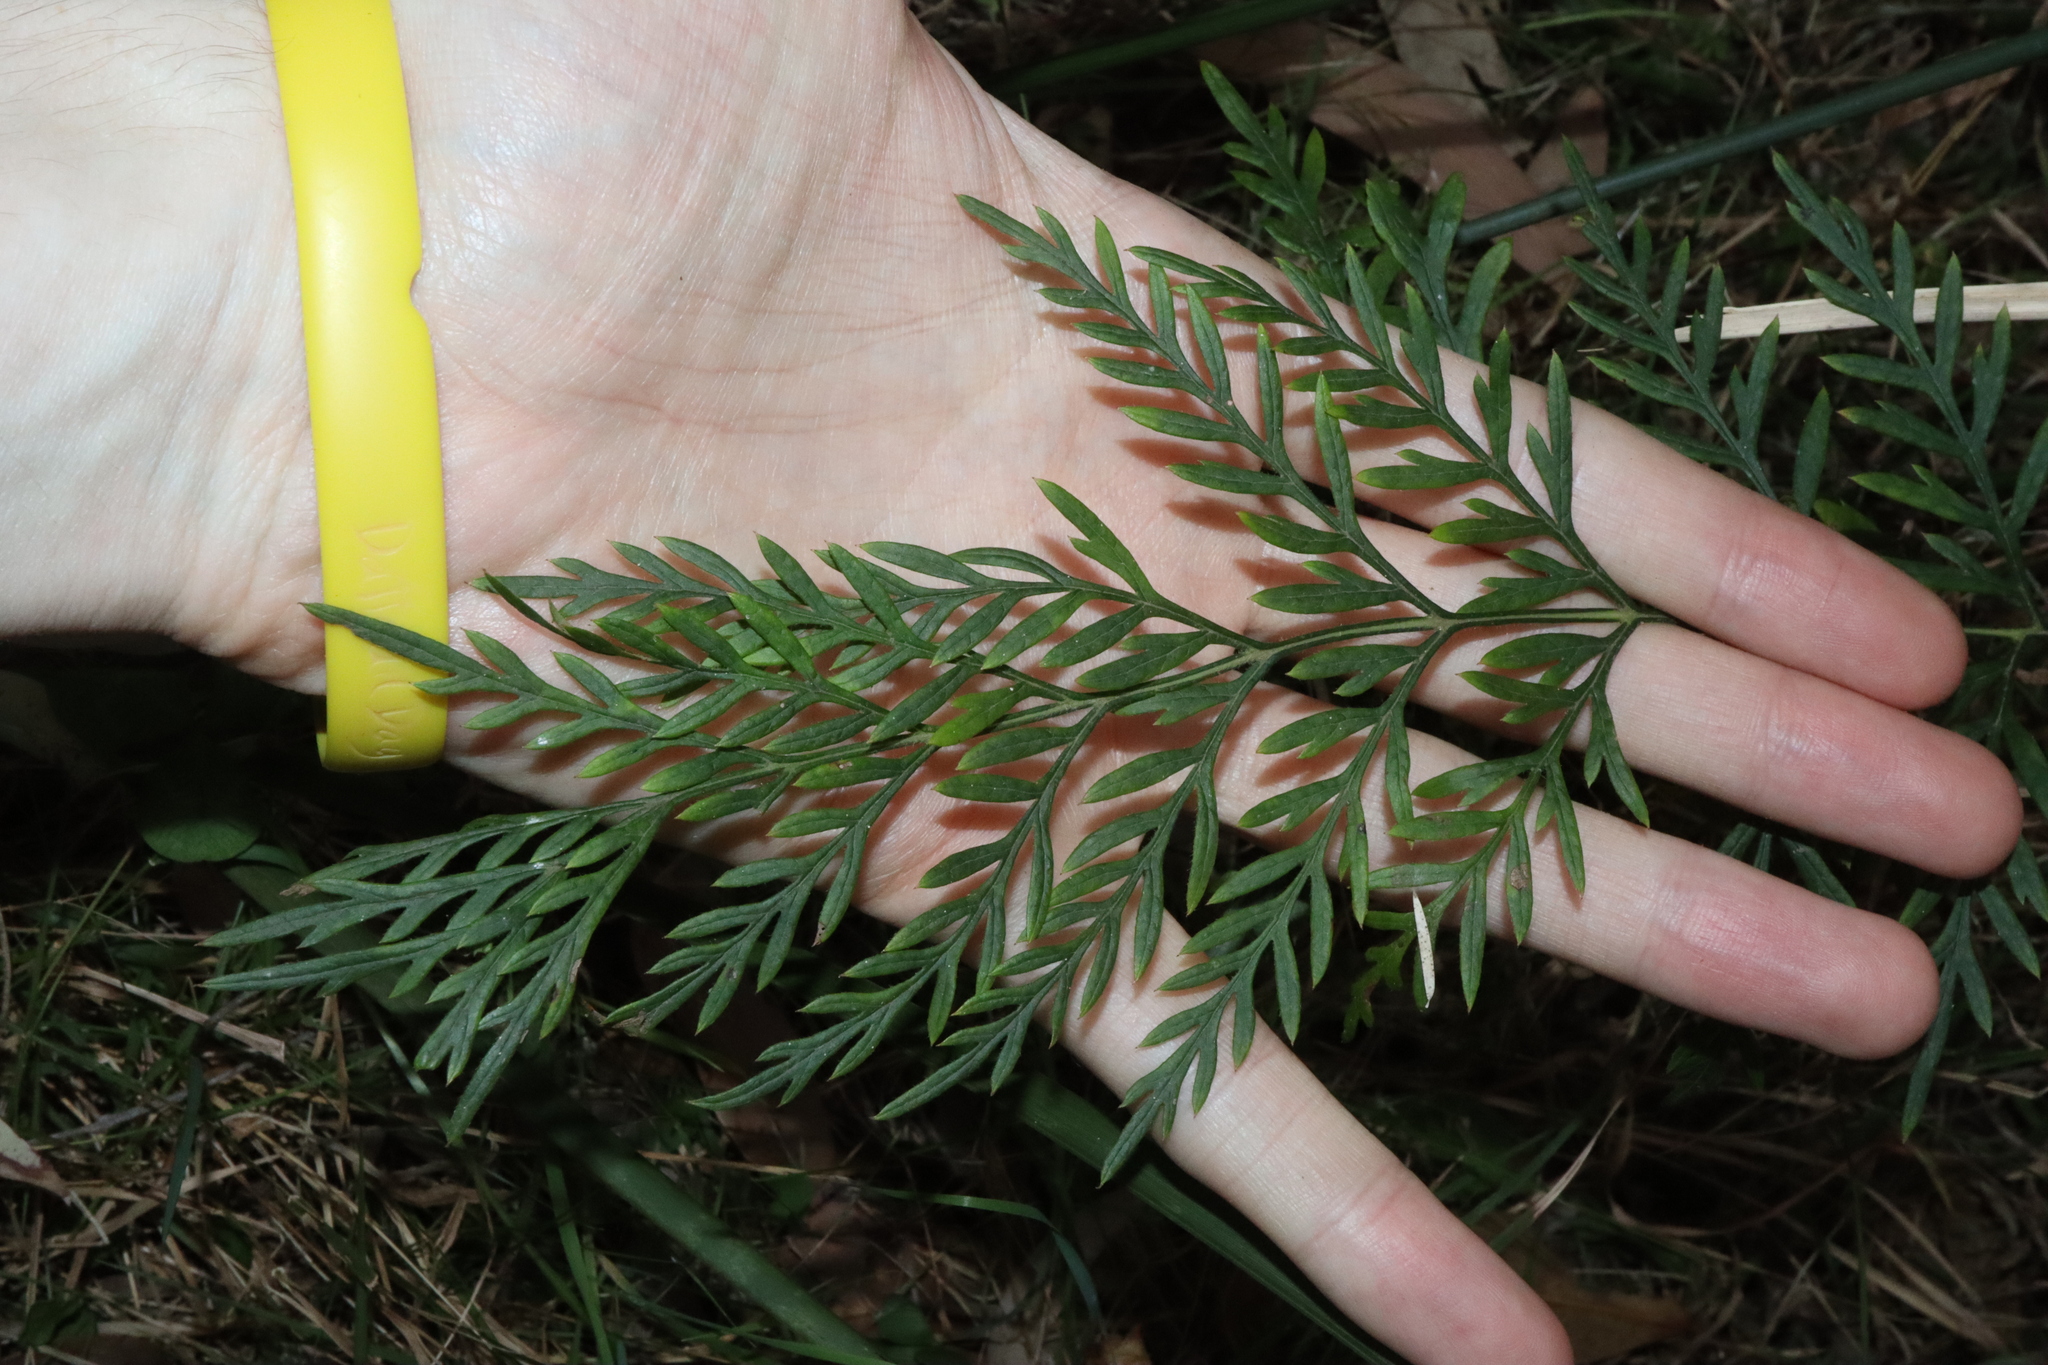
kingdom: Plantae
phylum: Tracheophyta
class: Magnoliopsida
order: Proteales
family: Proteaceae
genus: Grevillea
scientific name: Grevillea robusta
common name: Silkoak
